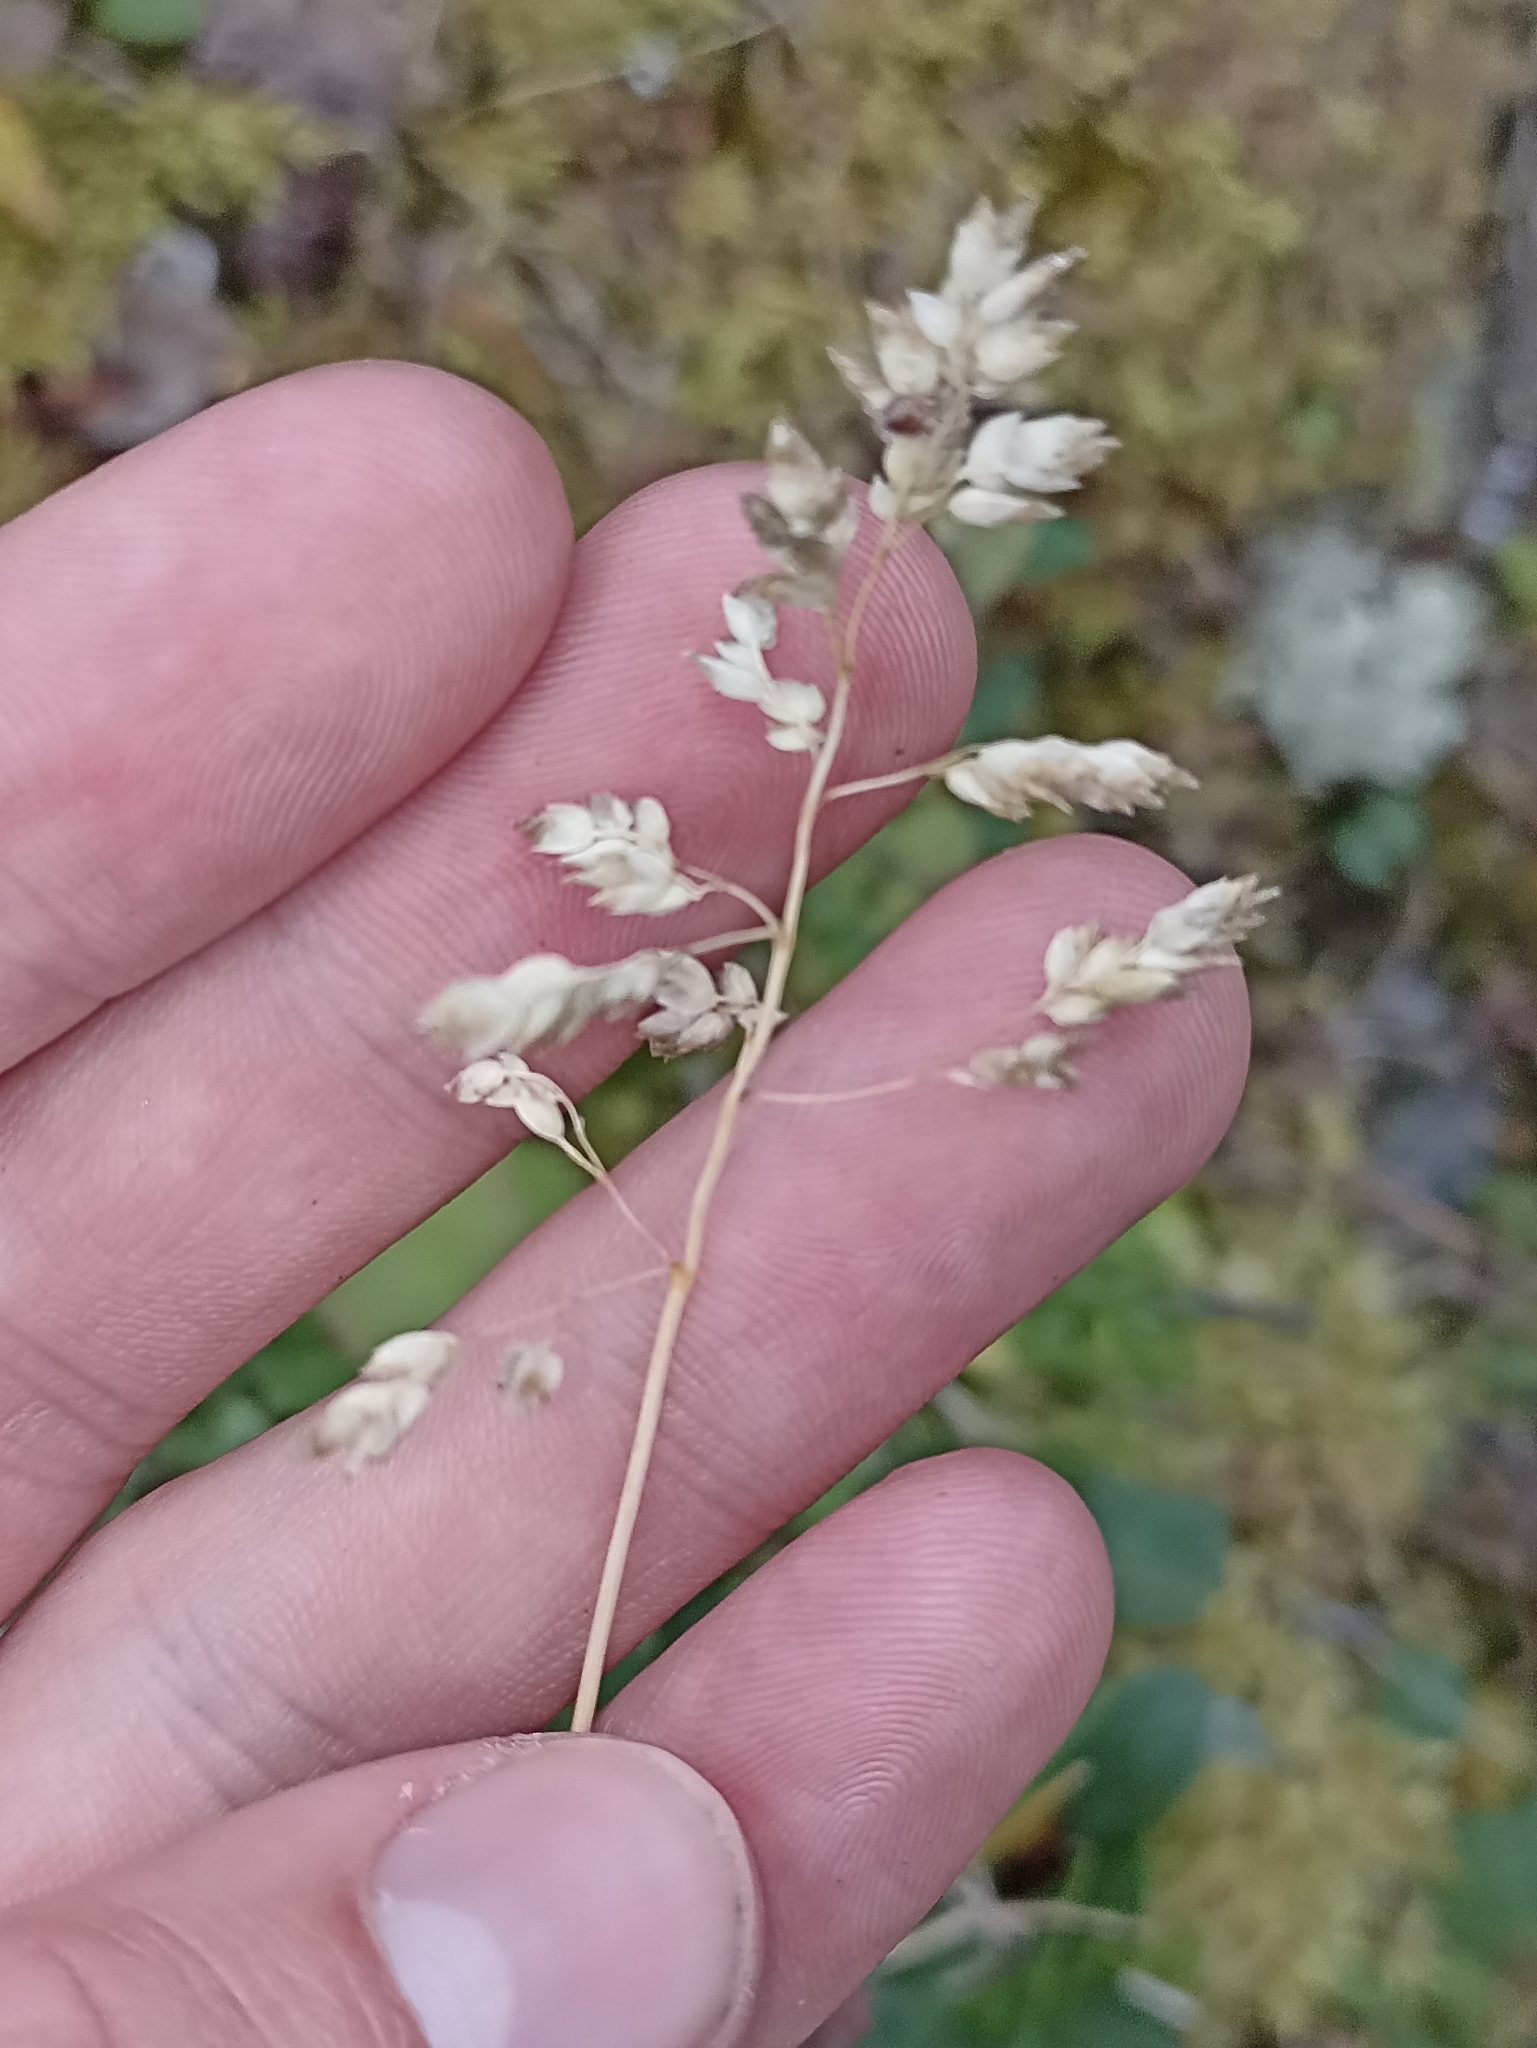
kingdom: Plantae
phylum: Tracheophyta
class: Liliopsida
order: Poales
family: Poaceae
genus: Poa
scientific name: Poa alpina
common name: Alpine bluegrass
